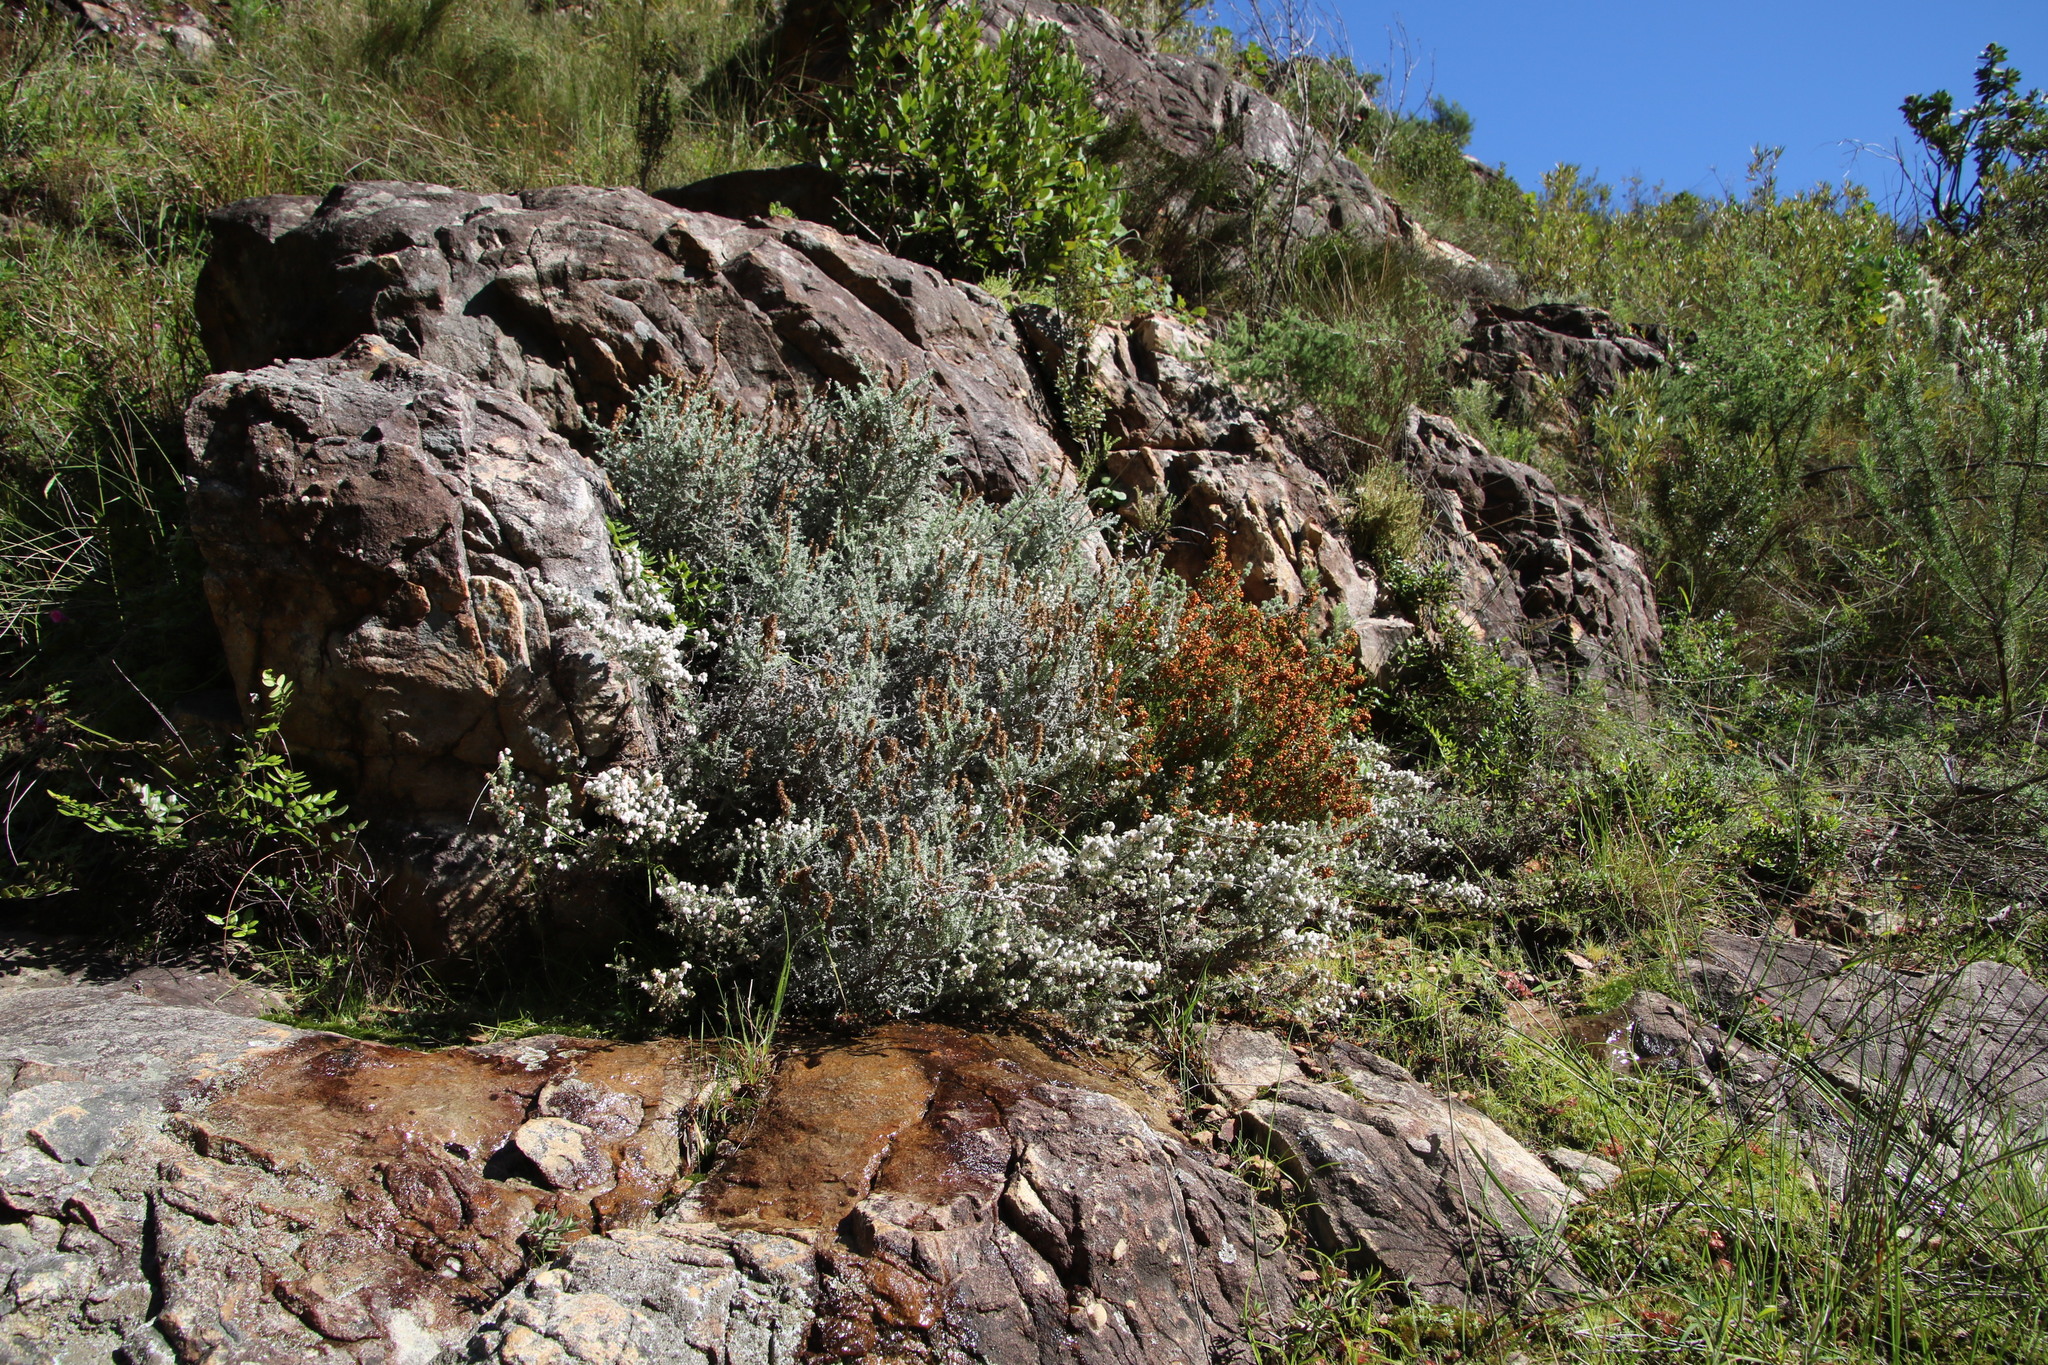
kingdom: Plantae
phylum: Tracheophyta
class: Magnoliopsida
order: Asterales
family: Asteraceae
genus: Seriphium
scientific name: Seriphium plumosum
